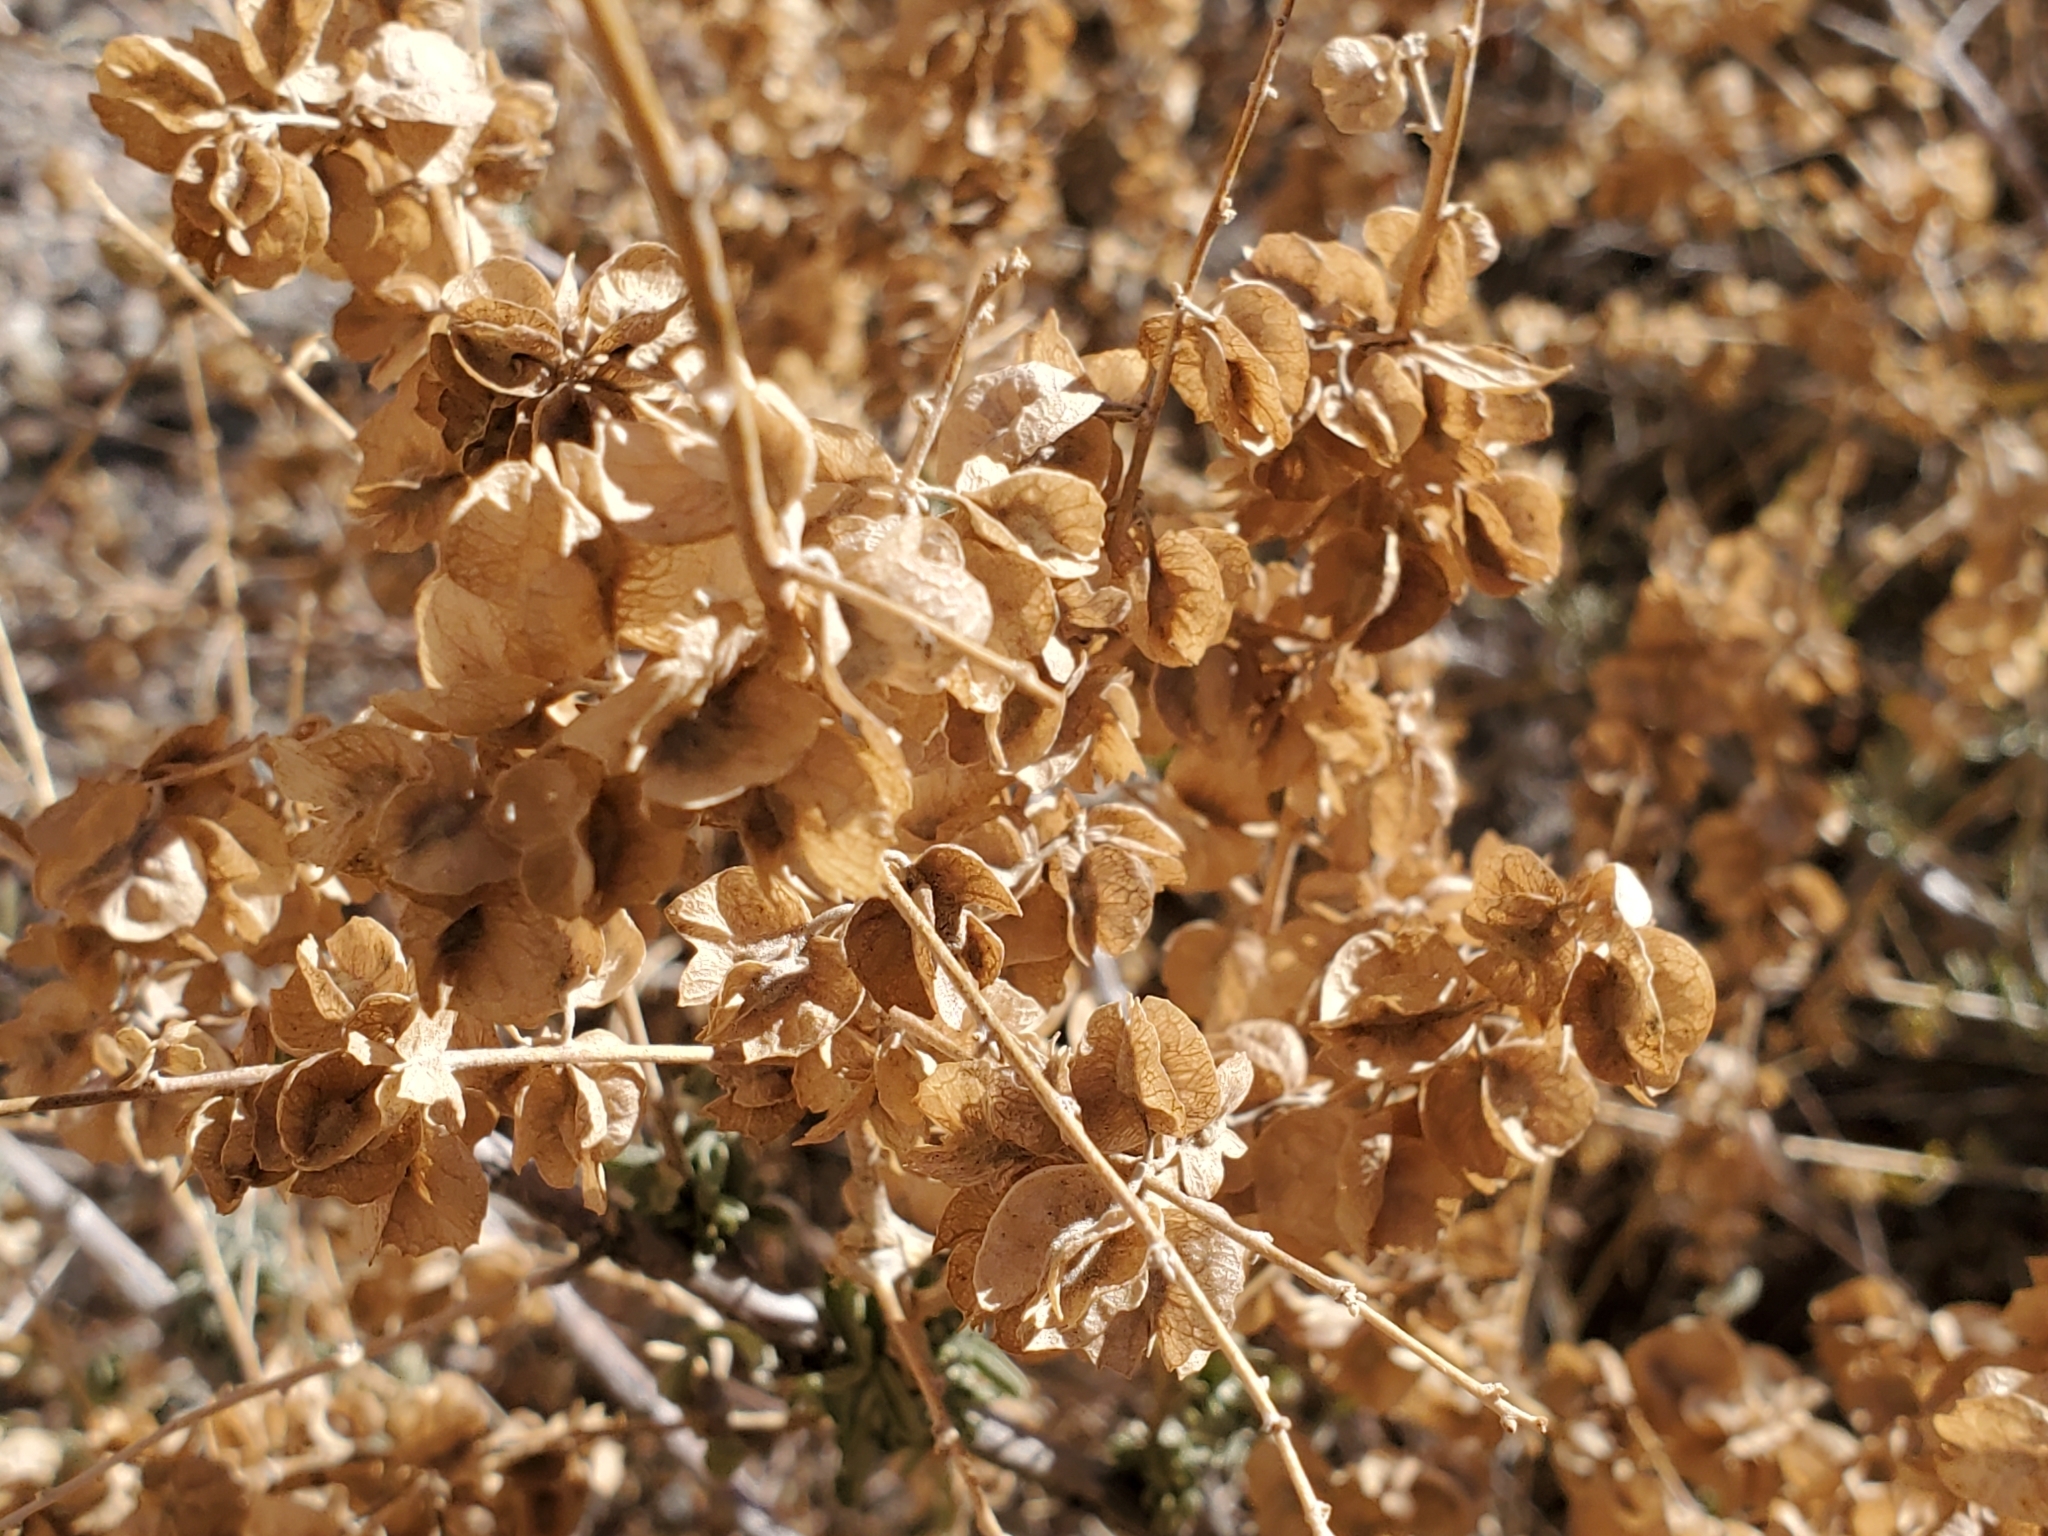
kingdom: Plantae
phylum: Tracheophyta
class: Magnoliopsida
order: Caryophyllales
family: Amaranthaceae
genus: Atriplex
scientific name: Atriplex canescens
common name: Four-wing saltbush
